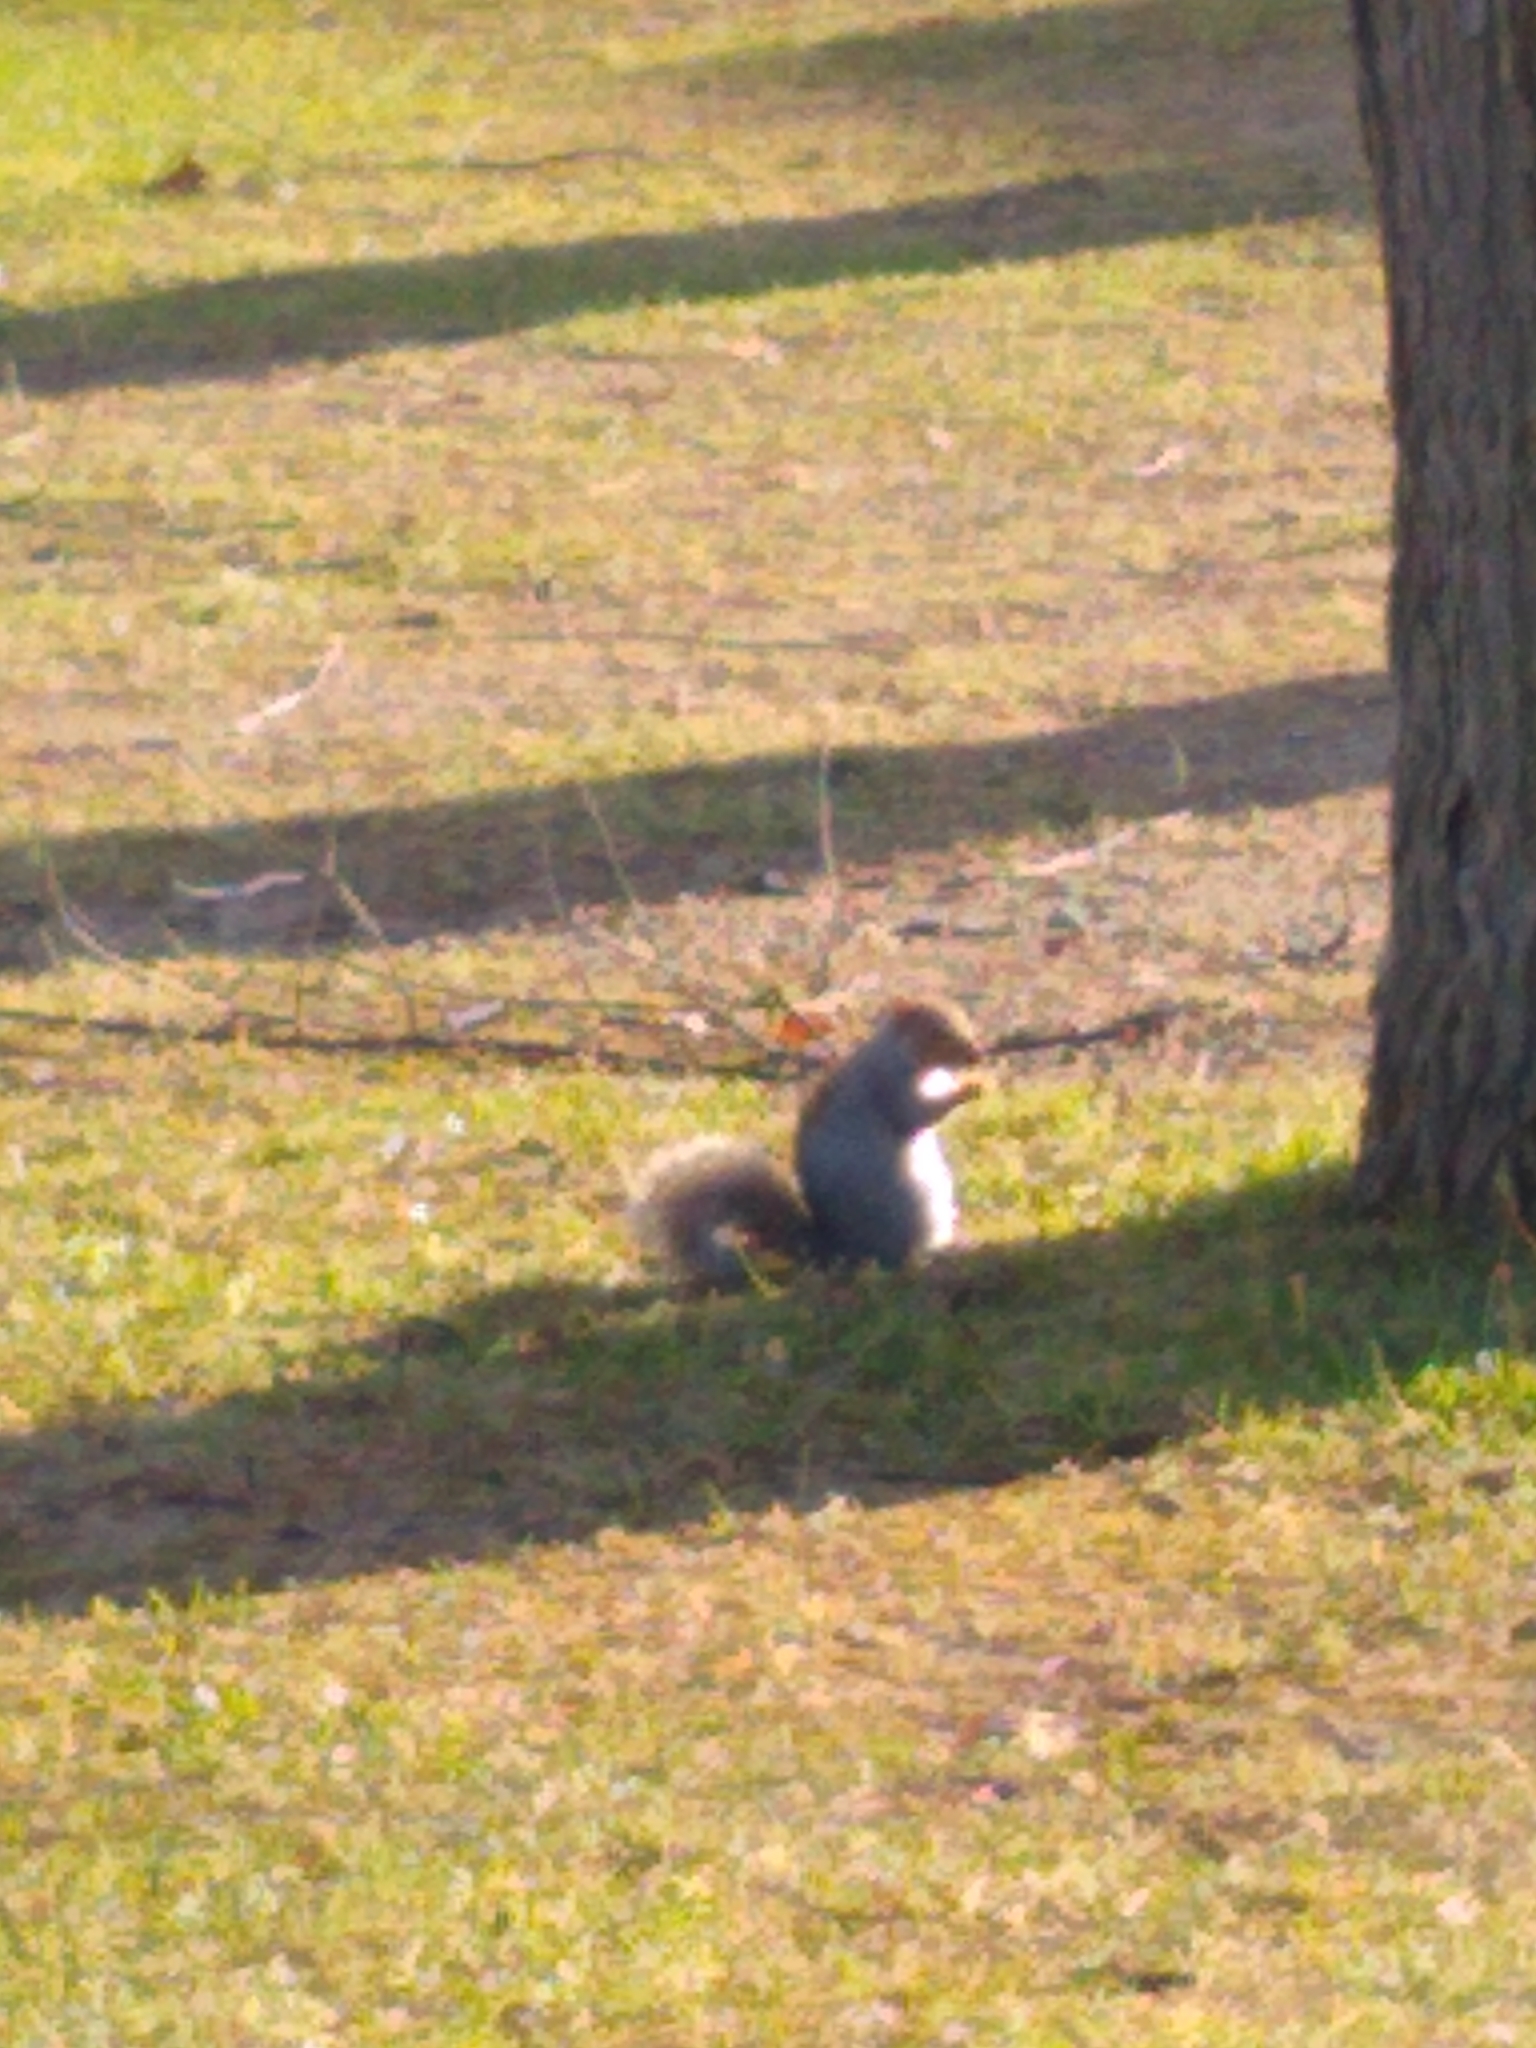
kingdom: Animalia
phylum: Chordata
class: Mammalia
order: Rodentia
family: Sciuridae
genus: Sciurus
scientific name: Sciurus carolinensis
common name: Eastern gray squirrel
